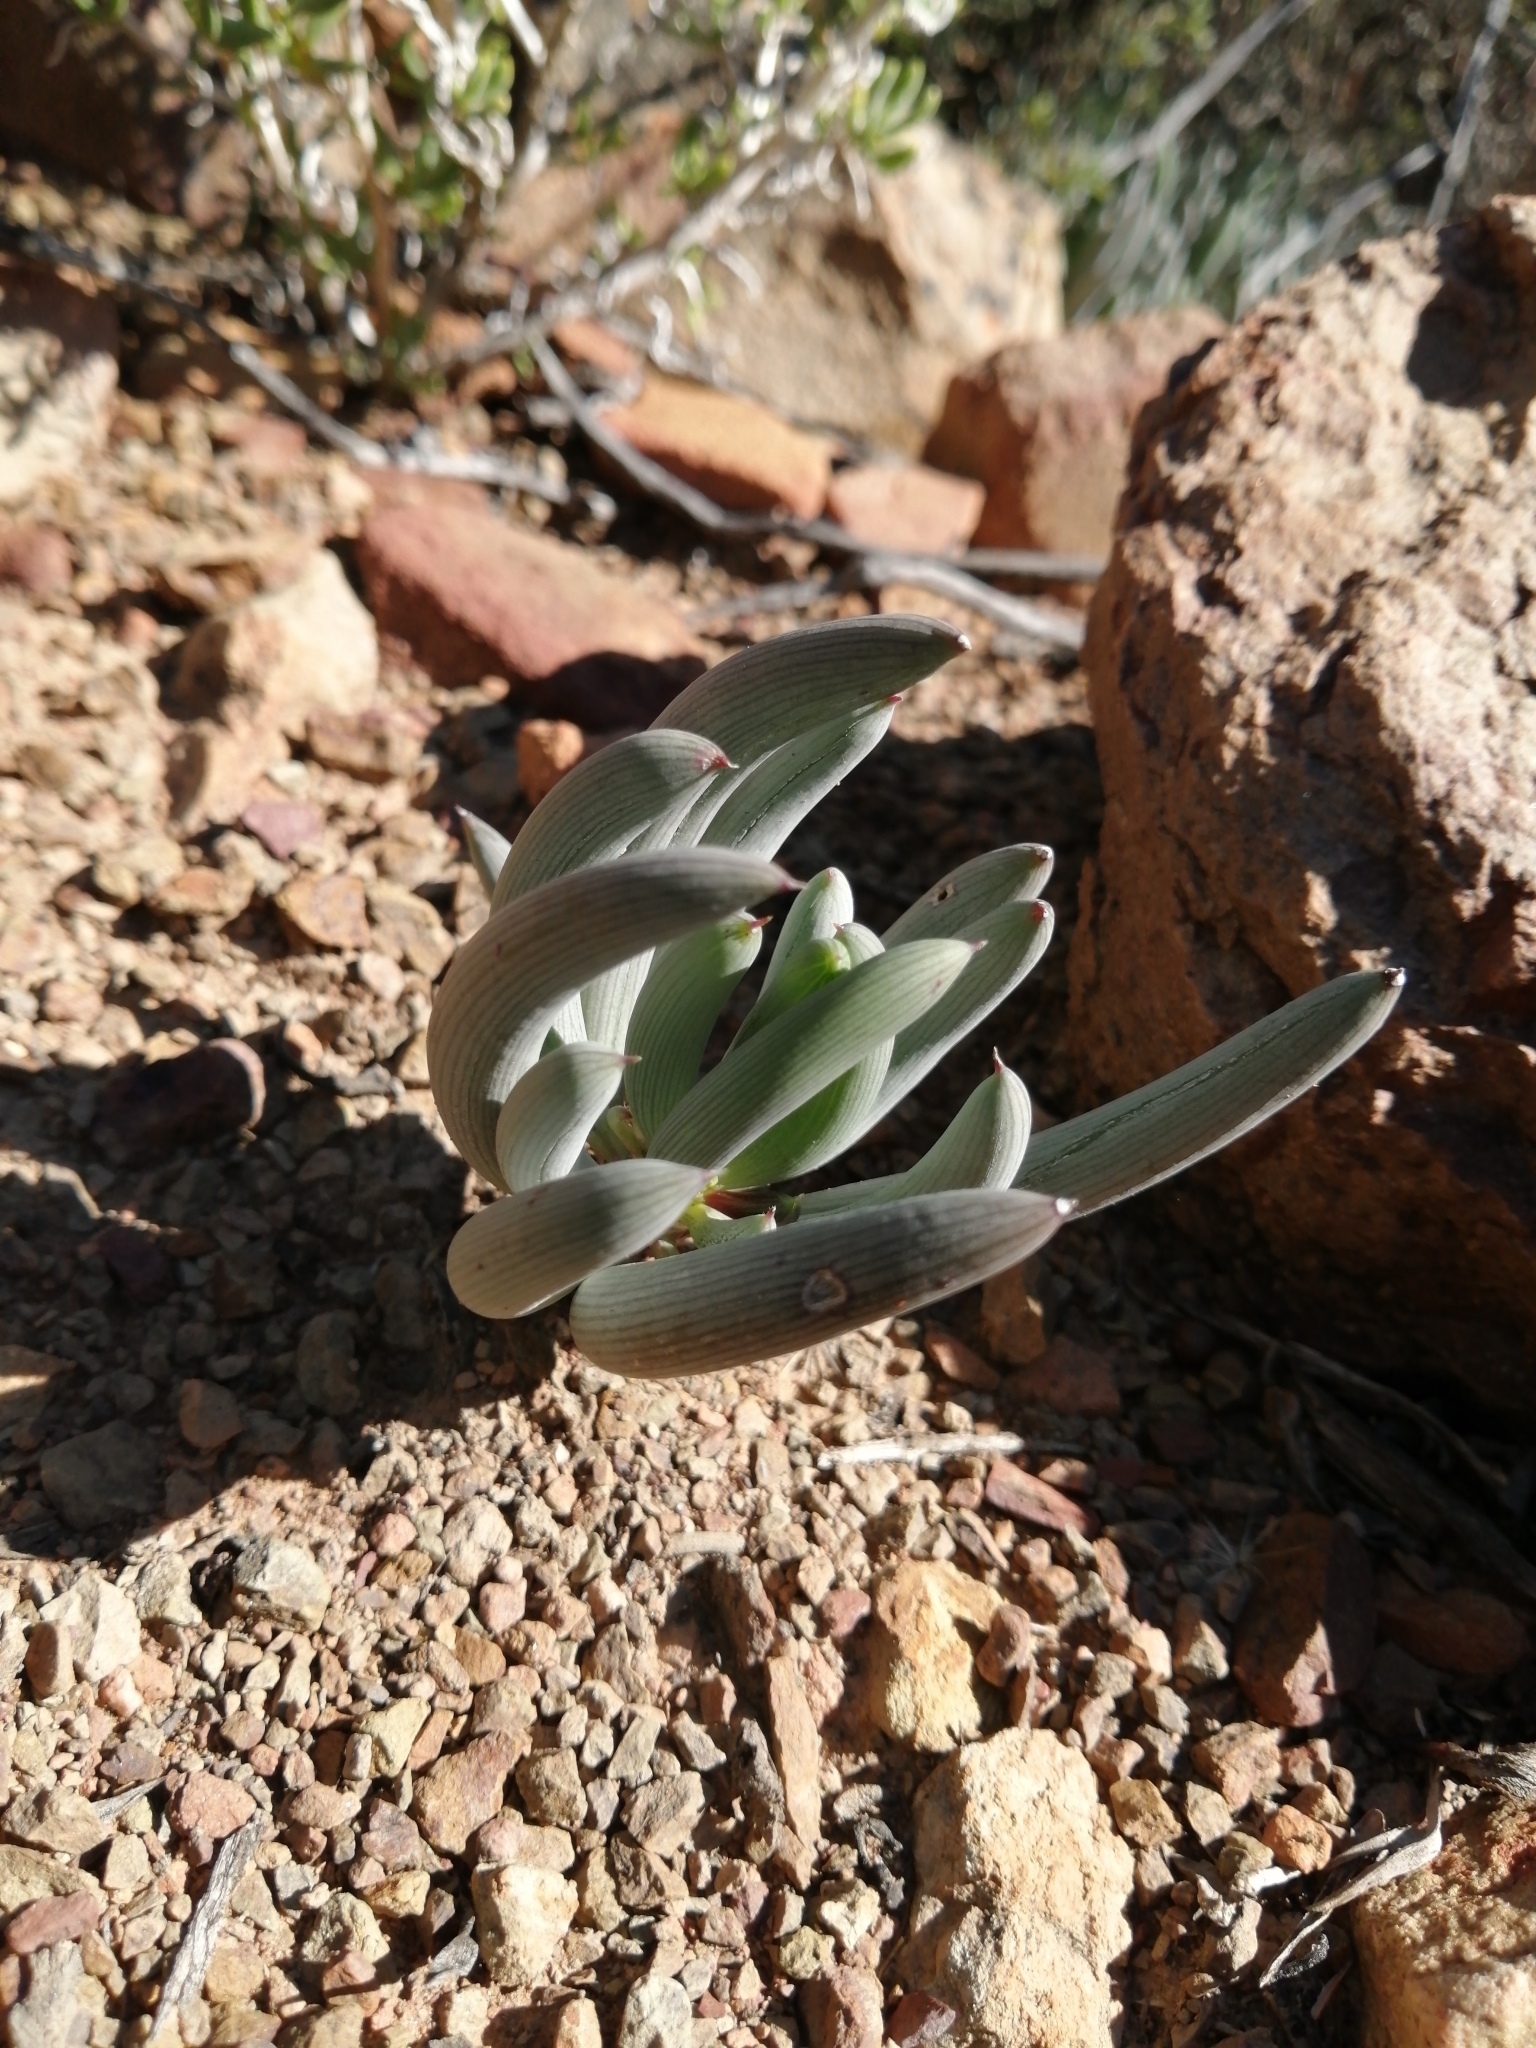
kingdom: Plantae
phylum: Tracheophyta
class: Magnoliopsida
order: Asterales
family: Asteraceae
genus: Curio
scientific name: Curio acaulis
